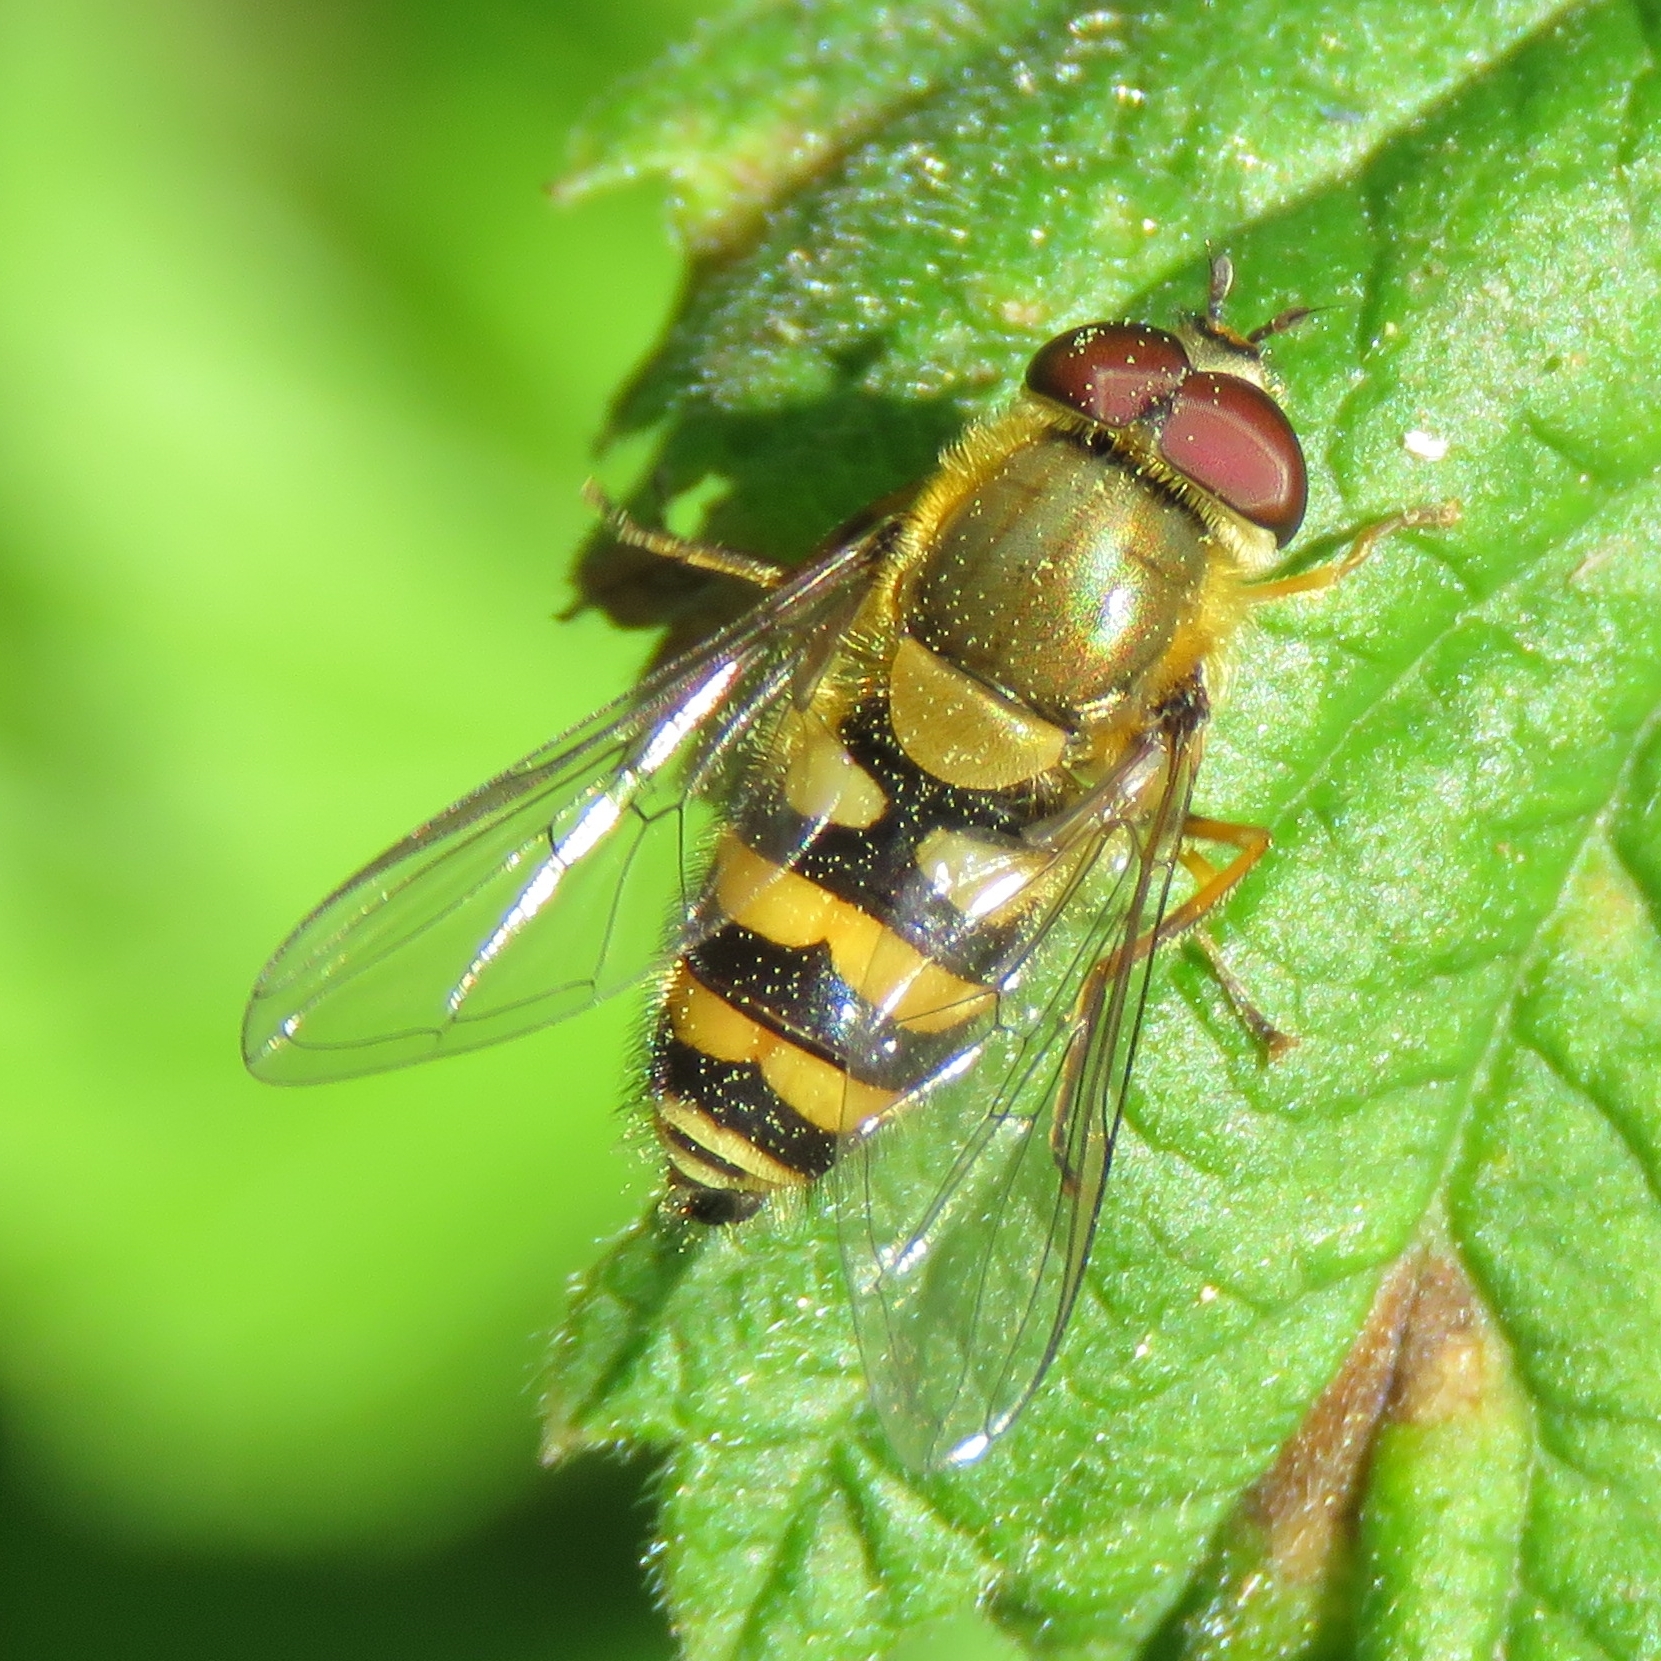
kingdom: Animalia
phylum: Arthropoda
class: Insecta
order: Diptera
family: Syrphidae
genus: Syrphus
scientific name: Syrphus
